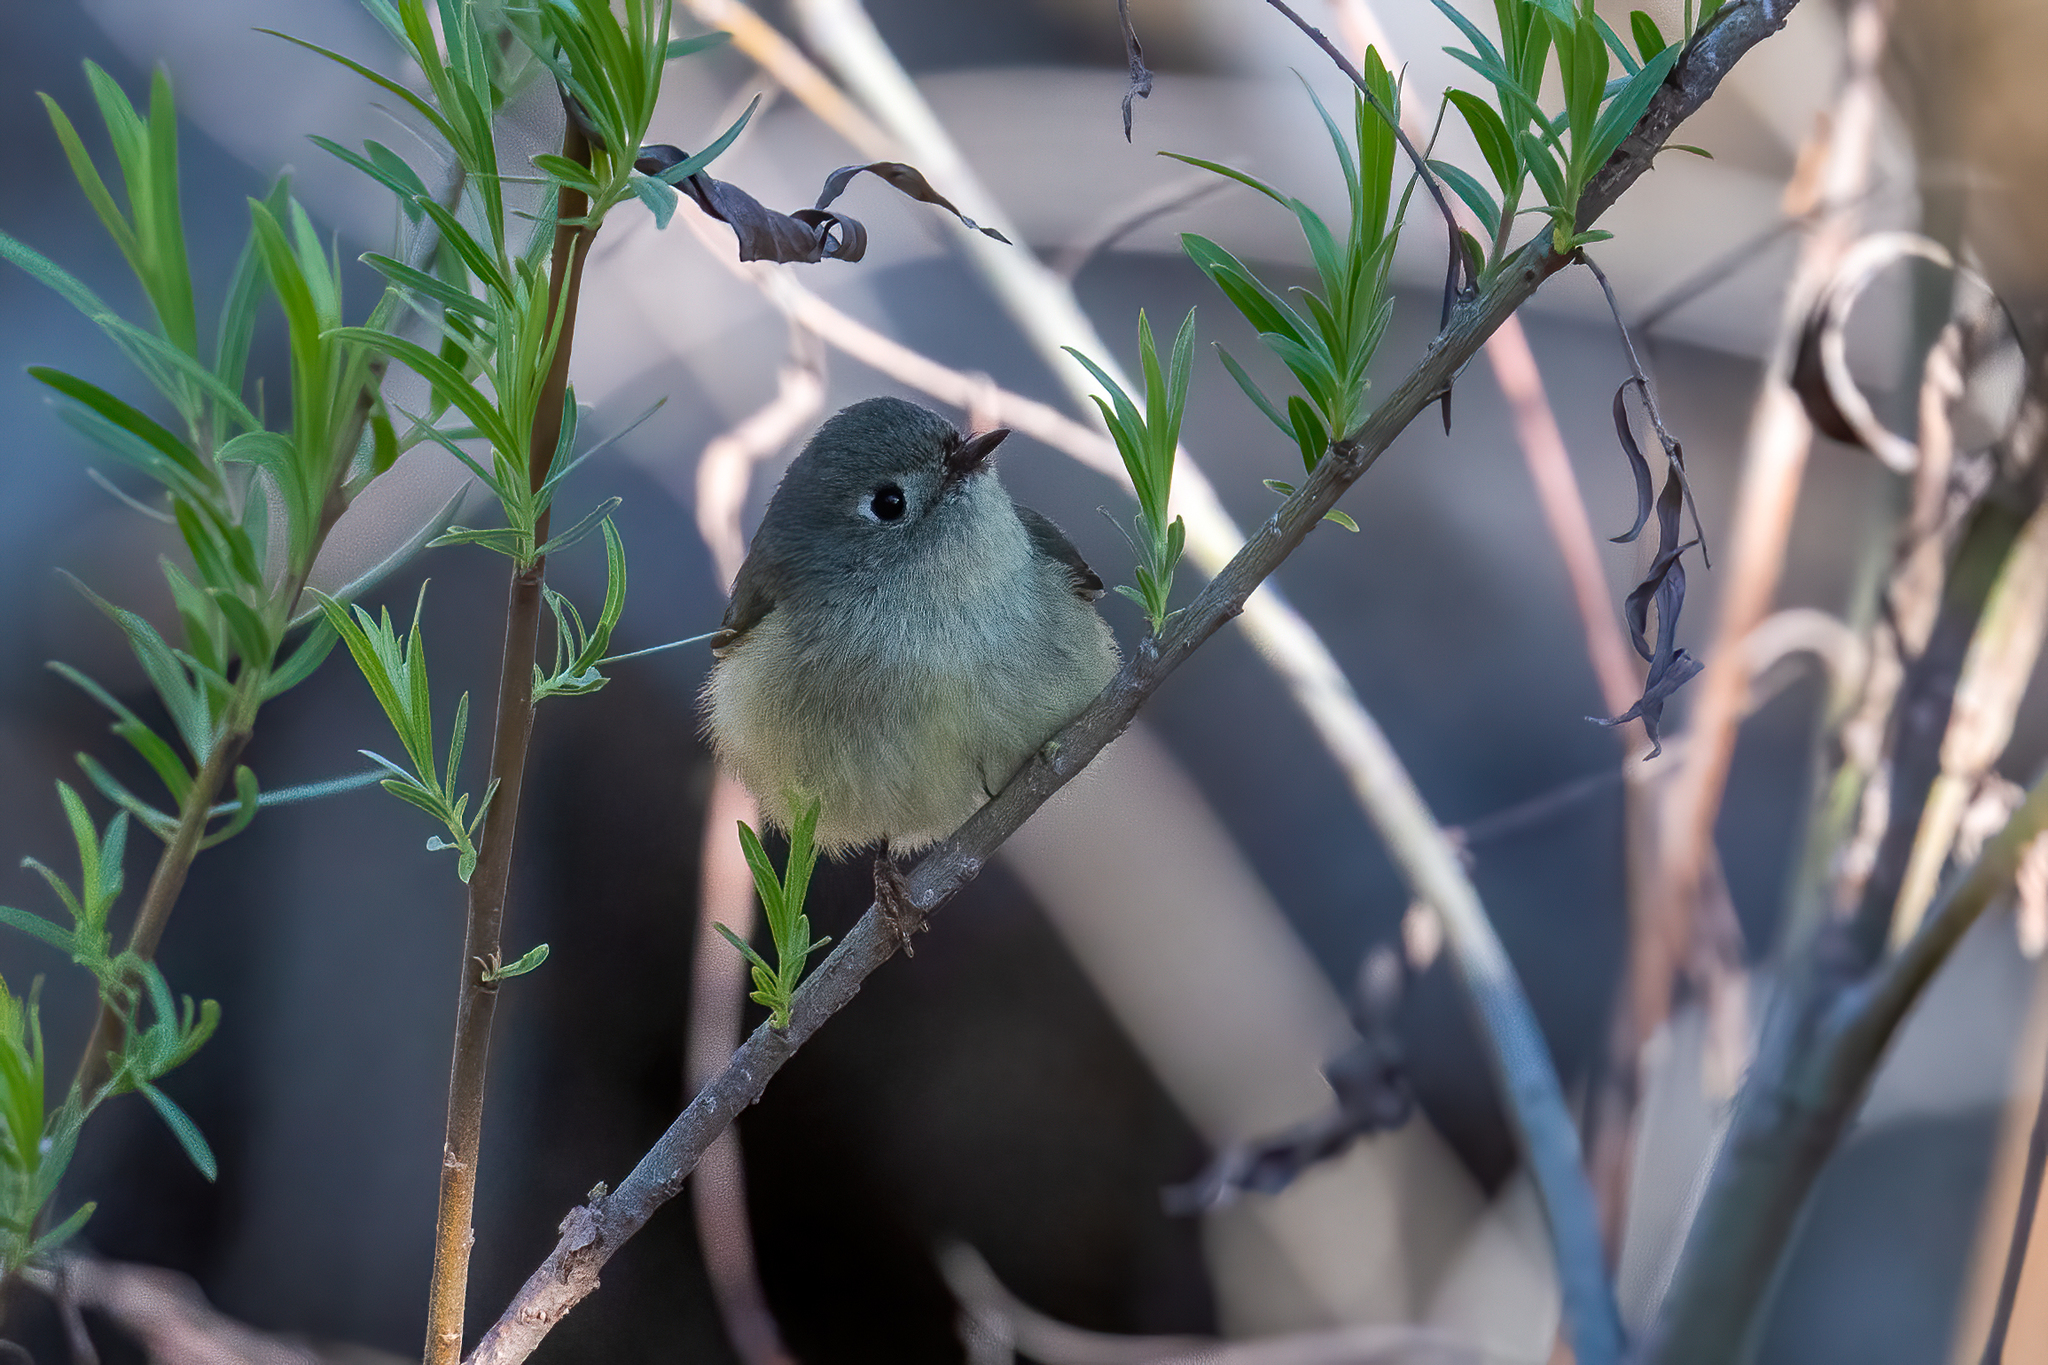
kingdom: Animalia
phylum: Chordata
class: Aves
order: Passeriformes
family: Regulidae
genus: Regulus
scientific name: Regulus calendula
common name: Ruby-crowned kinglet
